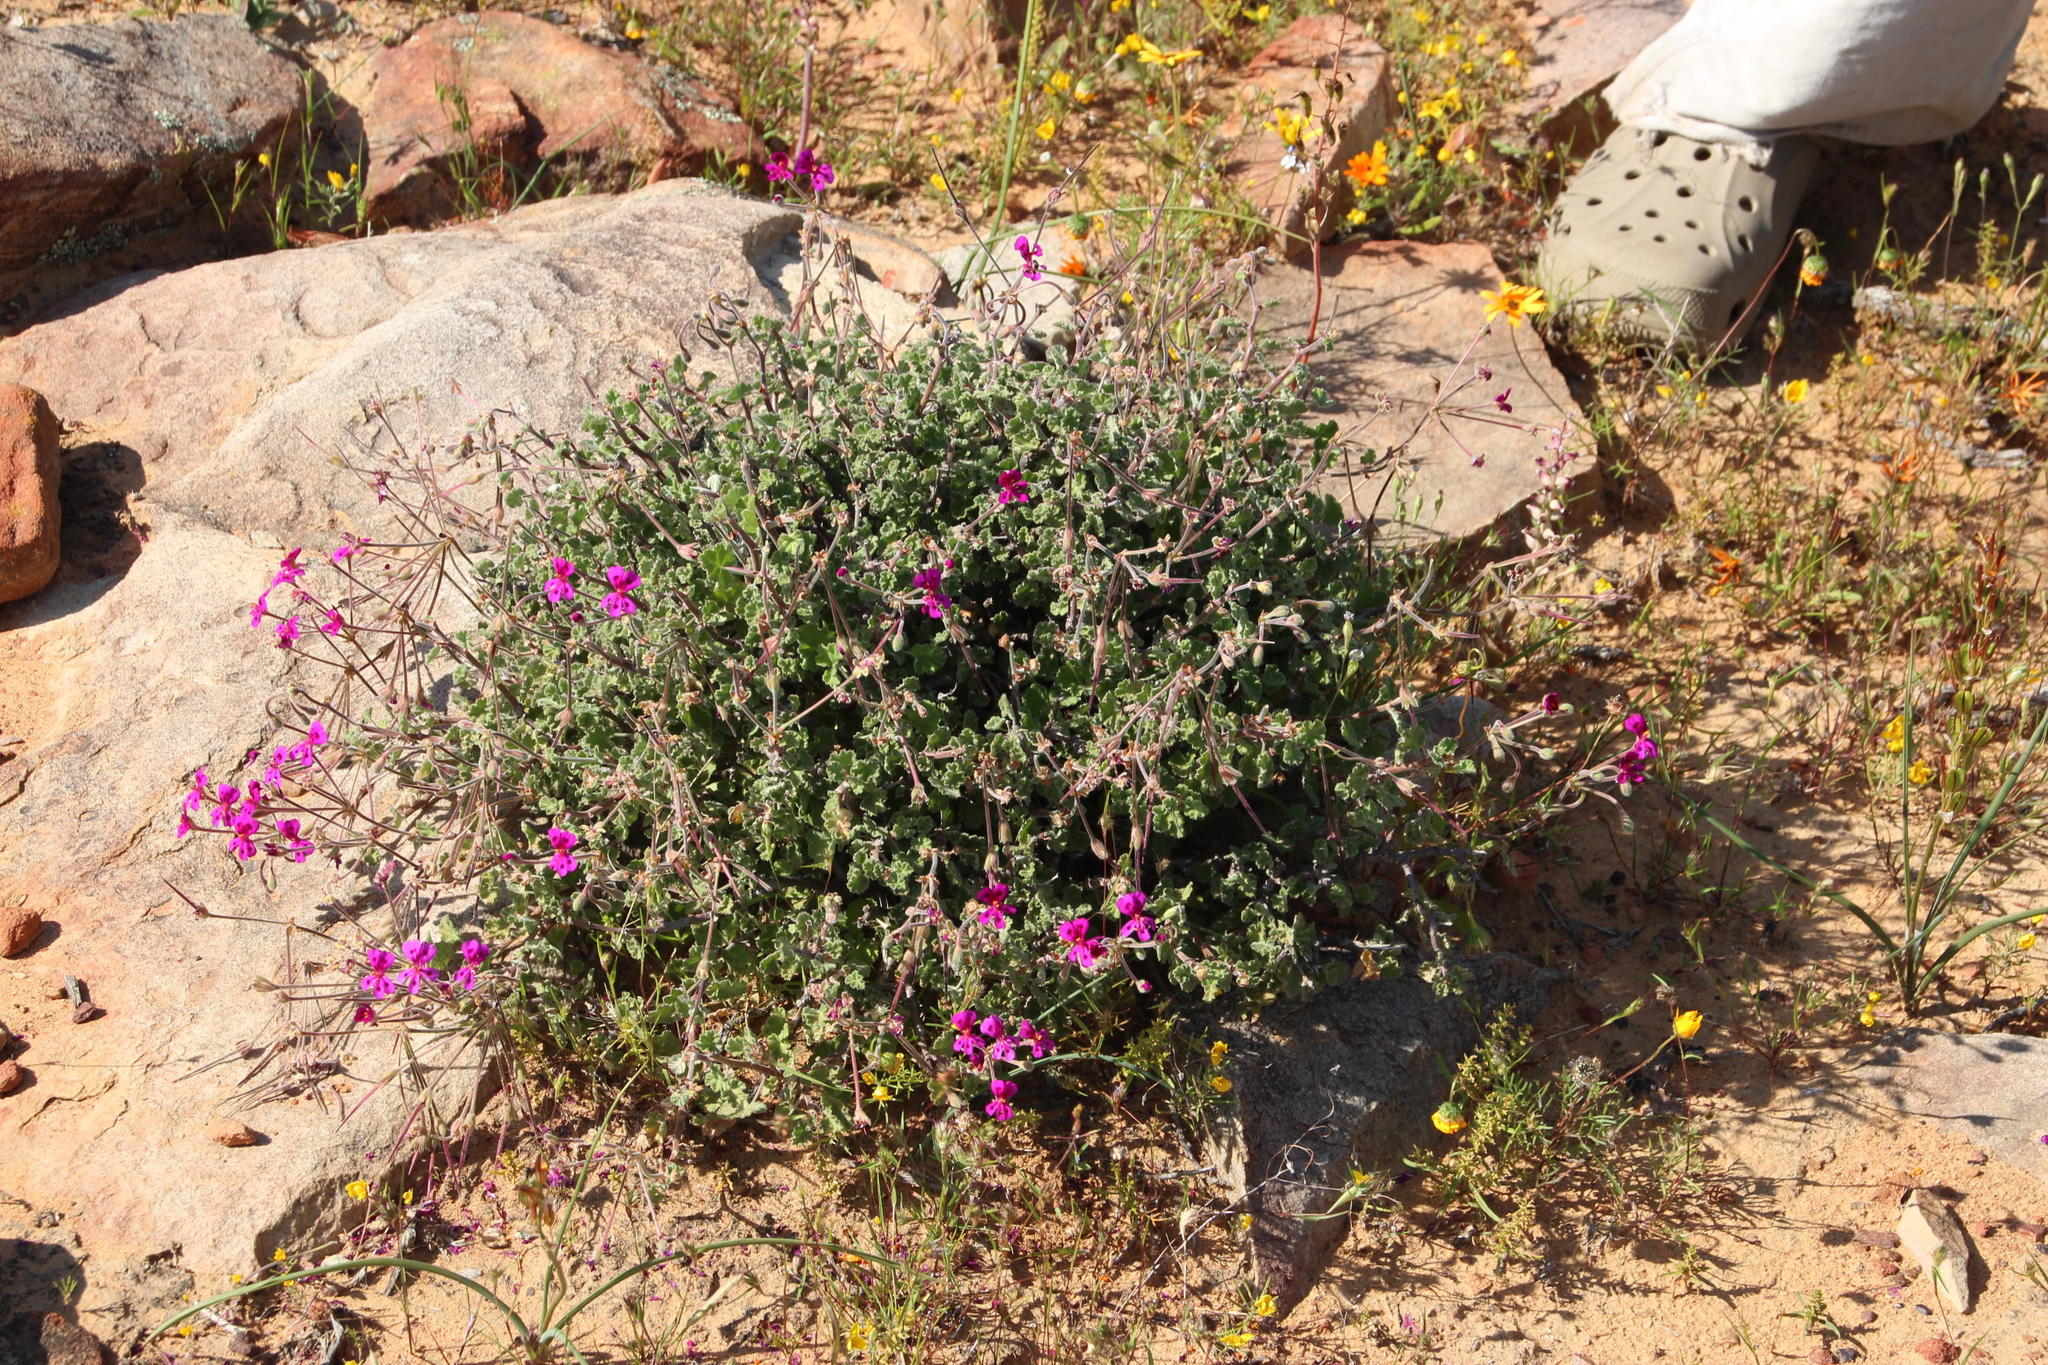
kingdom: Plantae
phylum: Tracheophyta
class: Magnoliopsida
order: Geraniales
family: Geraniaceae
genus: Pelargonium
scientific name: Pelargonium magenteum
